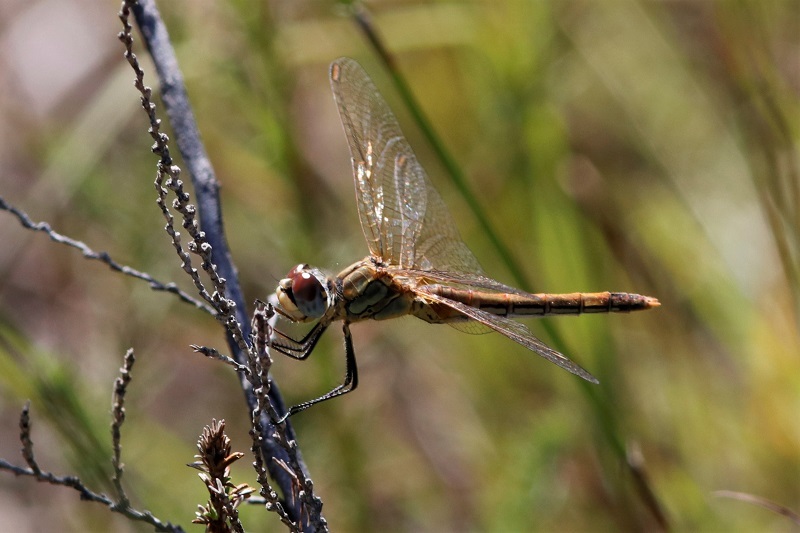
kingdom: Animalia
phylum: Arthropoda
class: Insecta
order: Odonata
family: Libellulidae
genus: Sympetrum
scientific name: Sympetrum fonscolombii
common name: Red-veined darter
